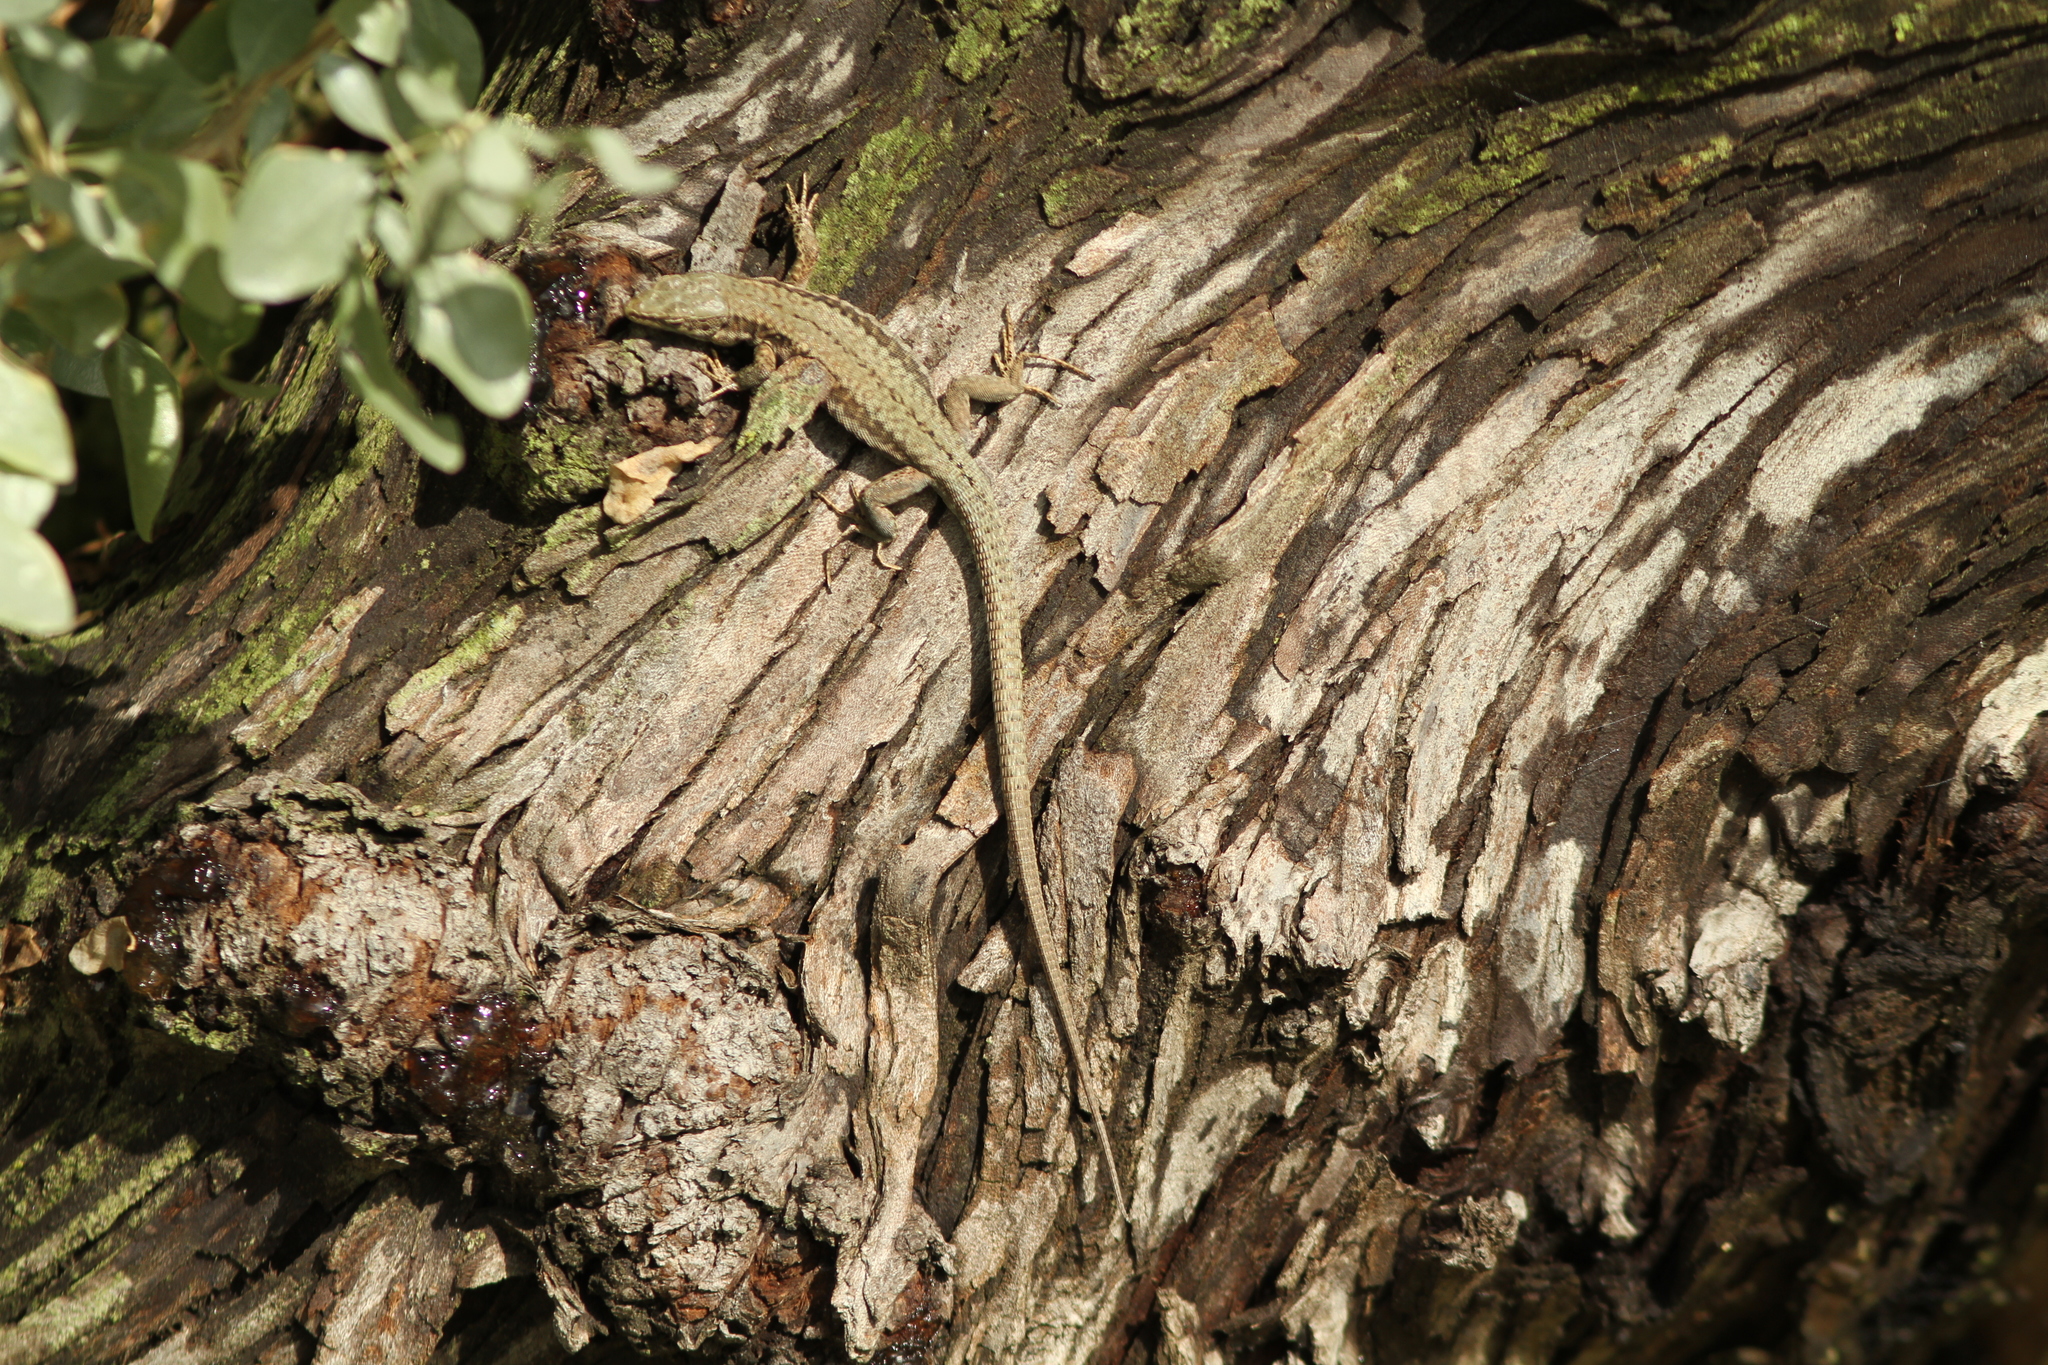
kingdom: Animalia
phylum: Chordata
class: Squamata
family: Lacertidae
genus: Podarcis
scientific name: Podarcis muralis
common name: Common wall lizard
